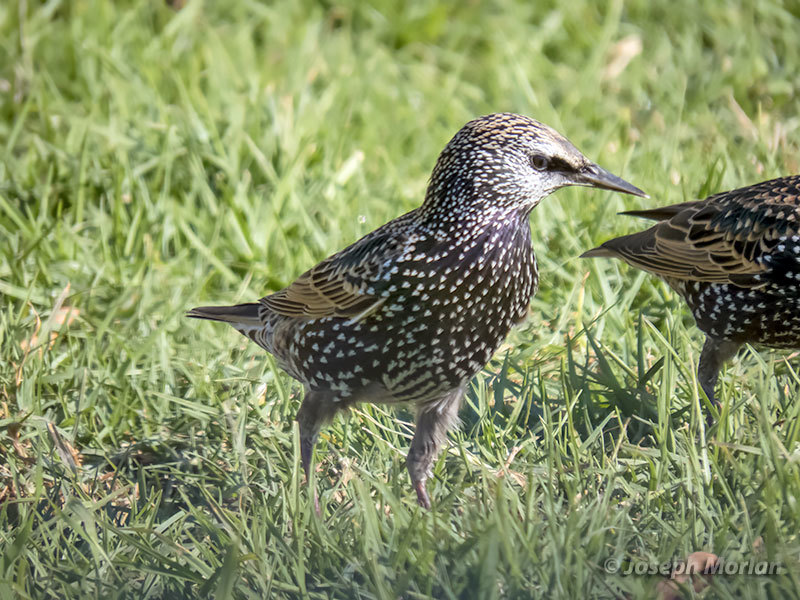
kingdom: Animalia
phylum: Chordata
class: Aves
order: Passeriformes
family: Sturnidae
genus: Sturnus
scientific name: Sturnus vulgaris
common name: Common starling
